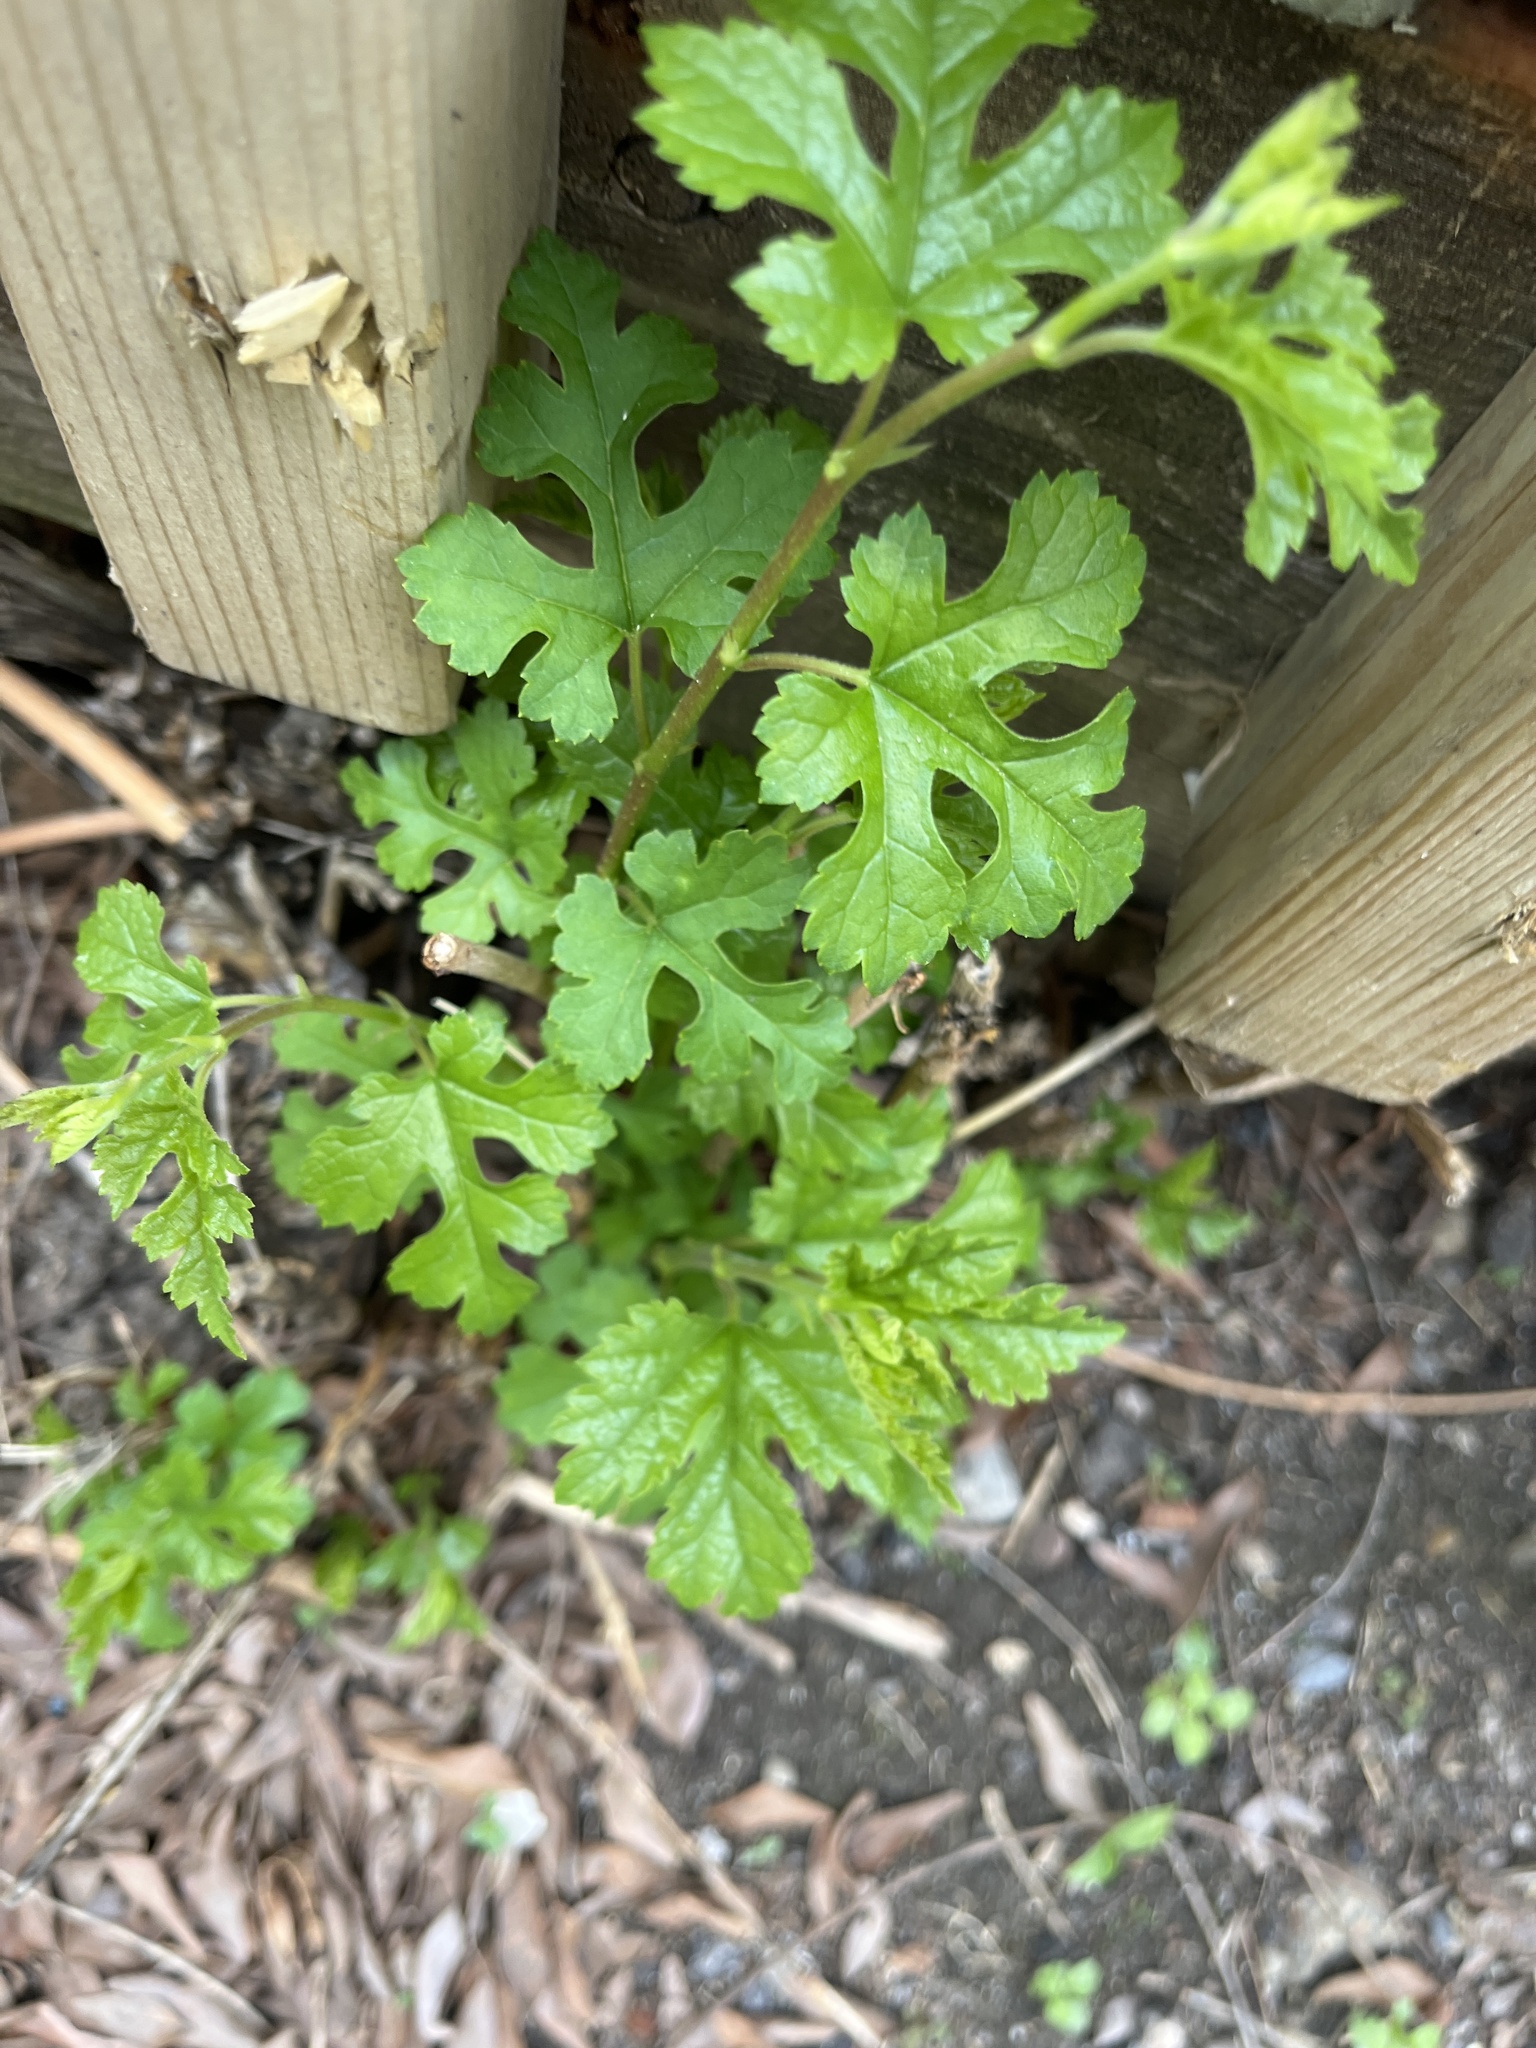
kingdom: Plantae
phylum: Tracheophyta
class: Magnoliopsida
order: Rosales
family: Moraceae
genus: Morus
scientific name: Morus alba
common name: White mulberry
